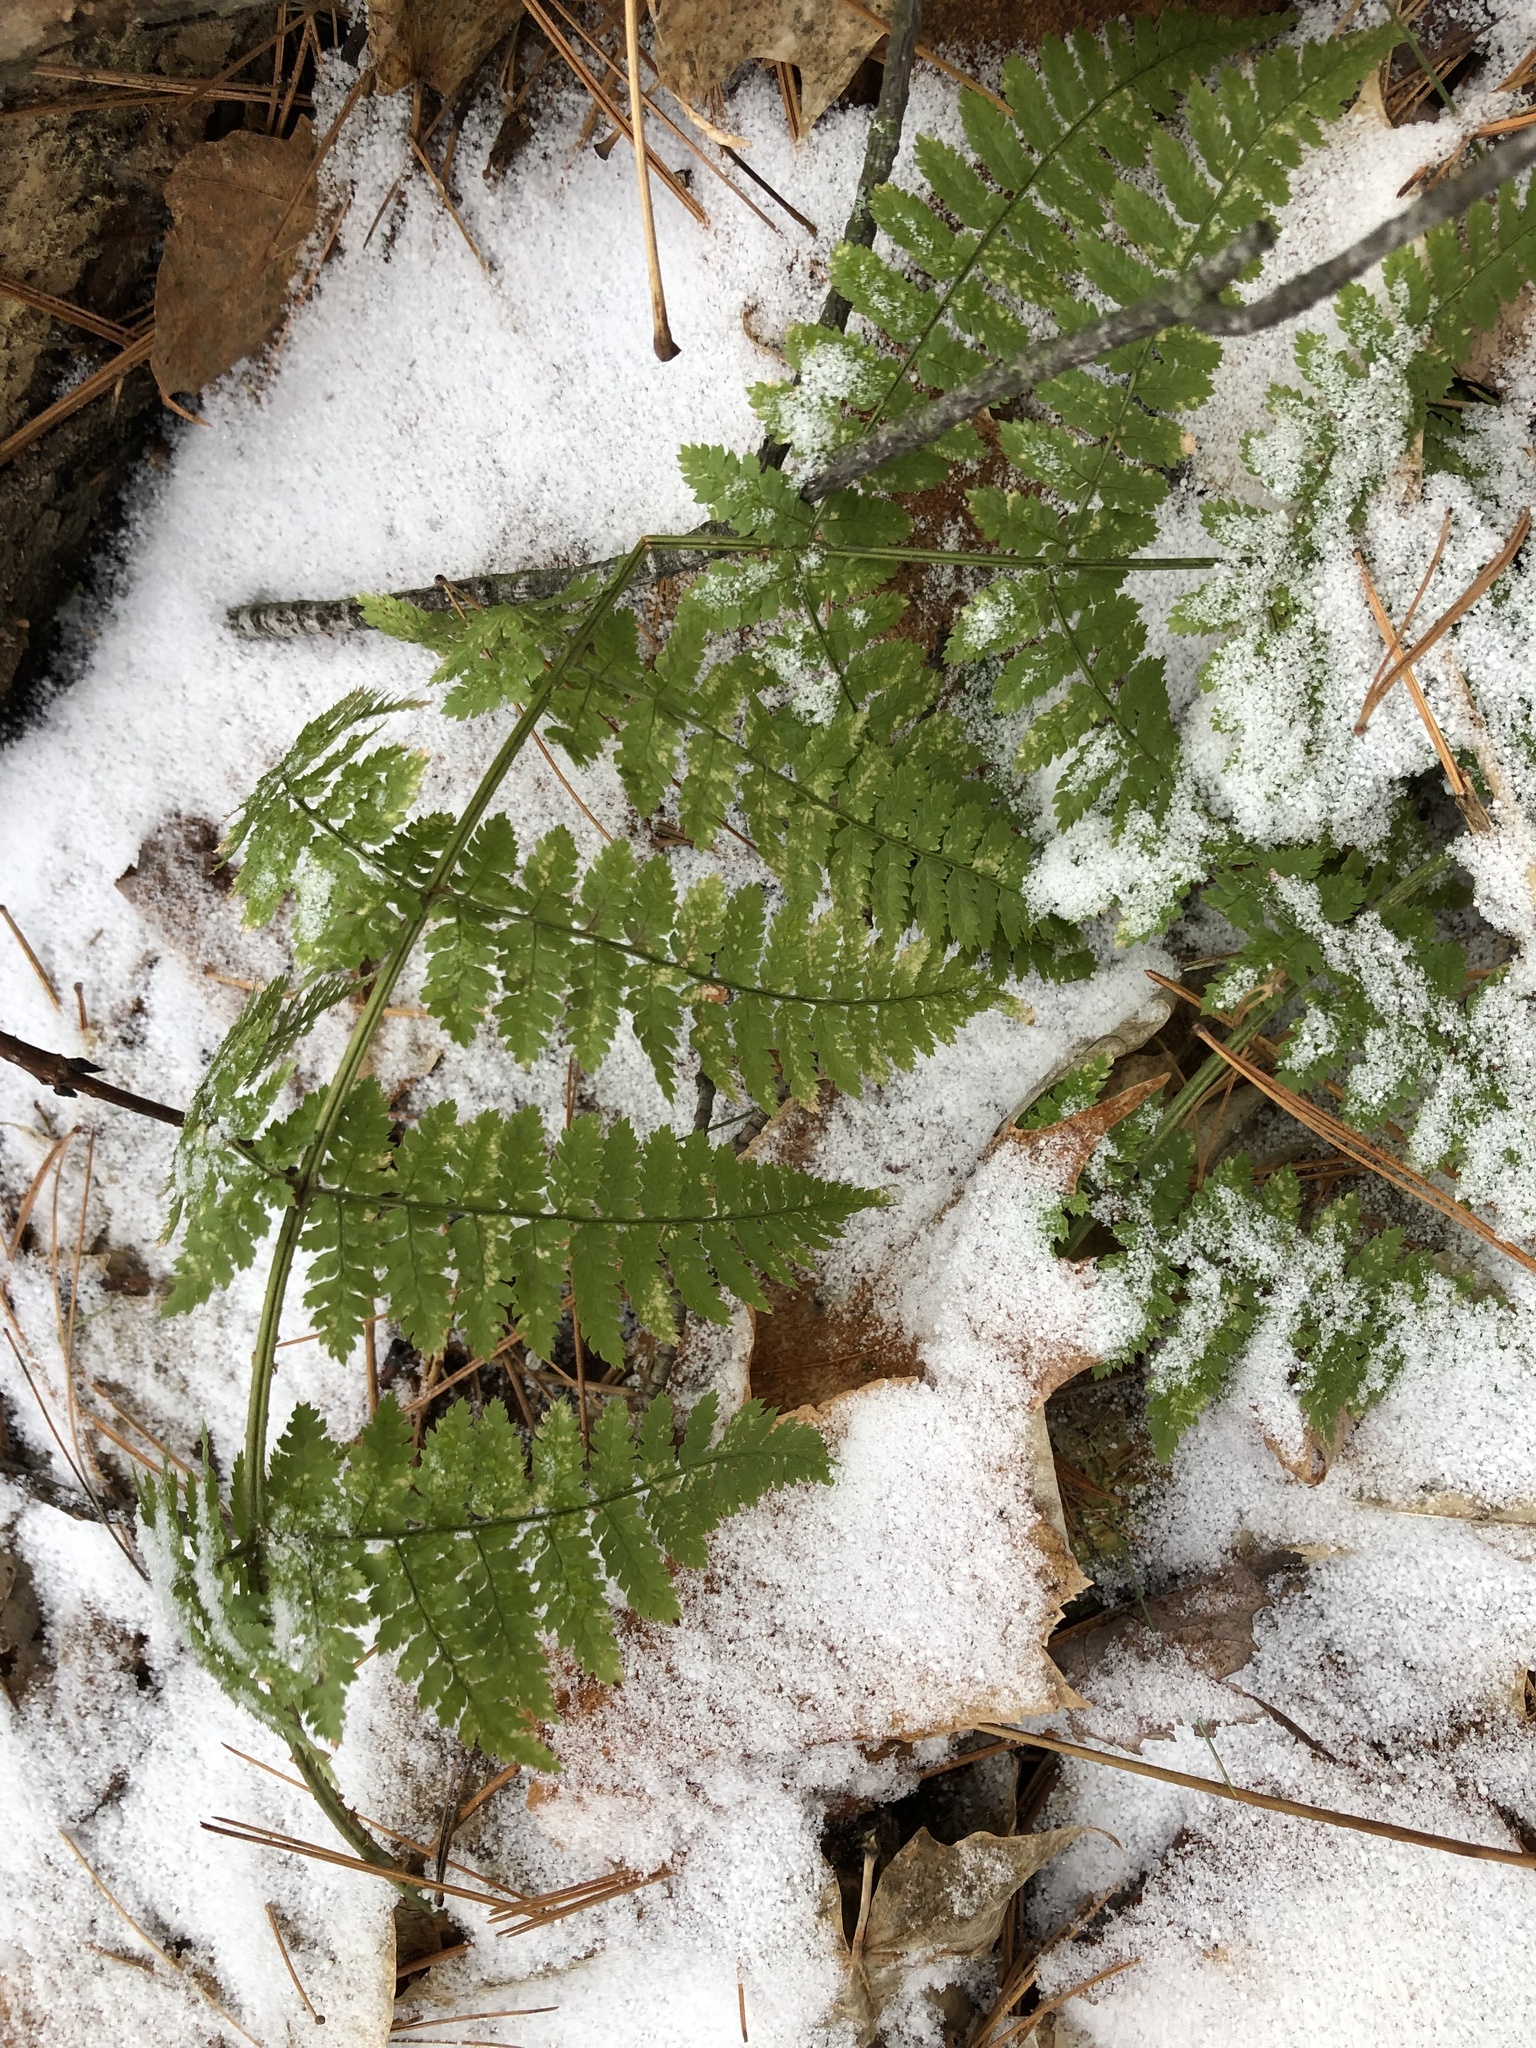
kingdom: Plantae
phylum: Tracheophyta
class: Polypodiopsida
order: Polypodiales
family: Dryopteridaceae
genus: Dryopteris
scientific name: Dryopteris intermedia
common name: Evergreen wood fern
